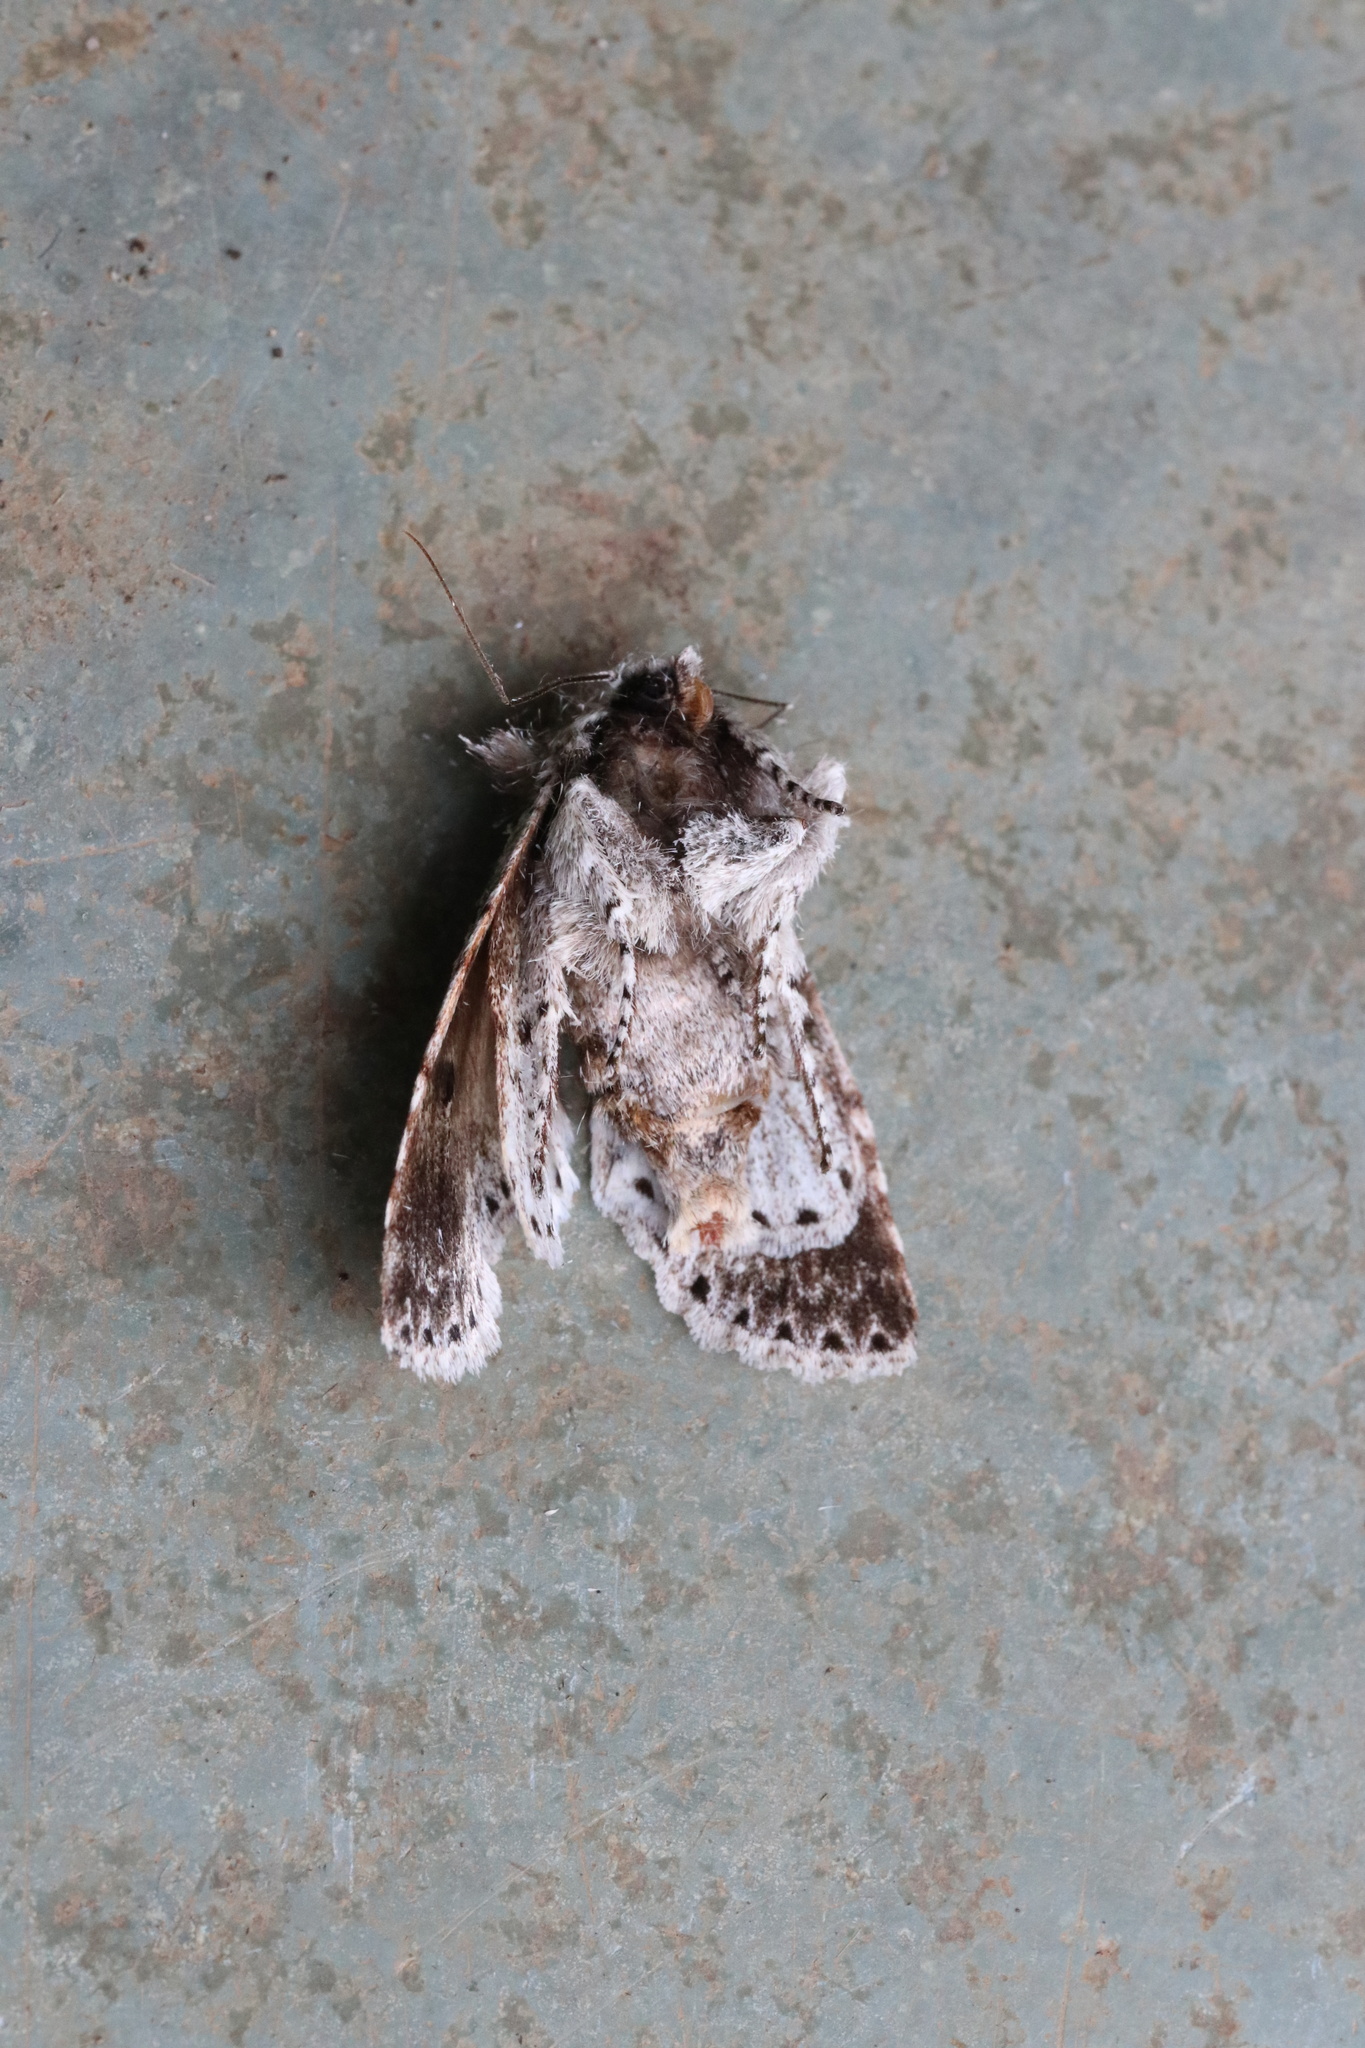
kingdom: Animalia
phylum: Arthropoda
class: Insecta
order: Lepidoptera
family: Noctuidae
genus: Pseudocerura
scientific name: Pseudocerura thoracica
